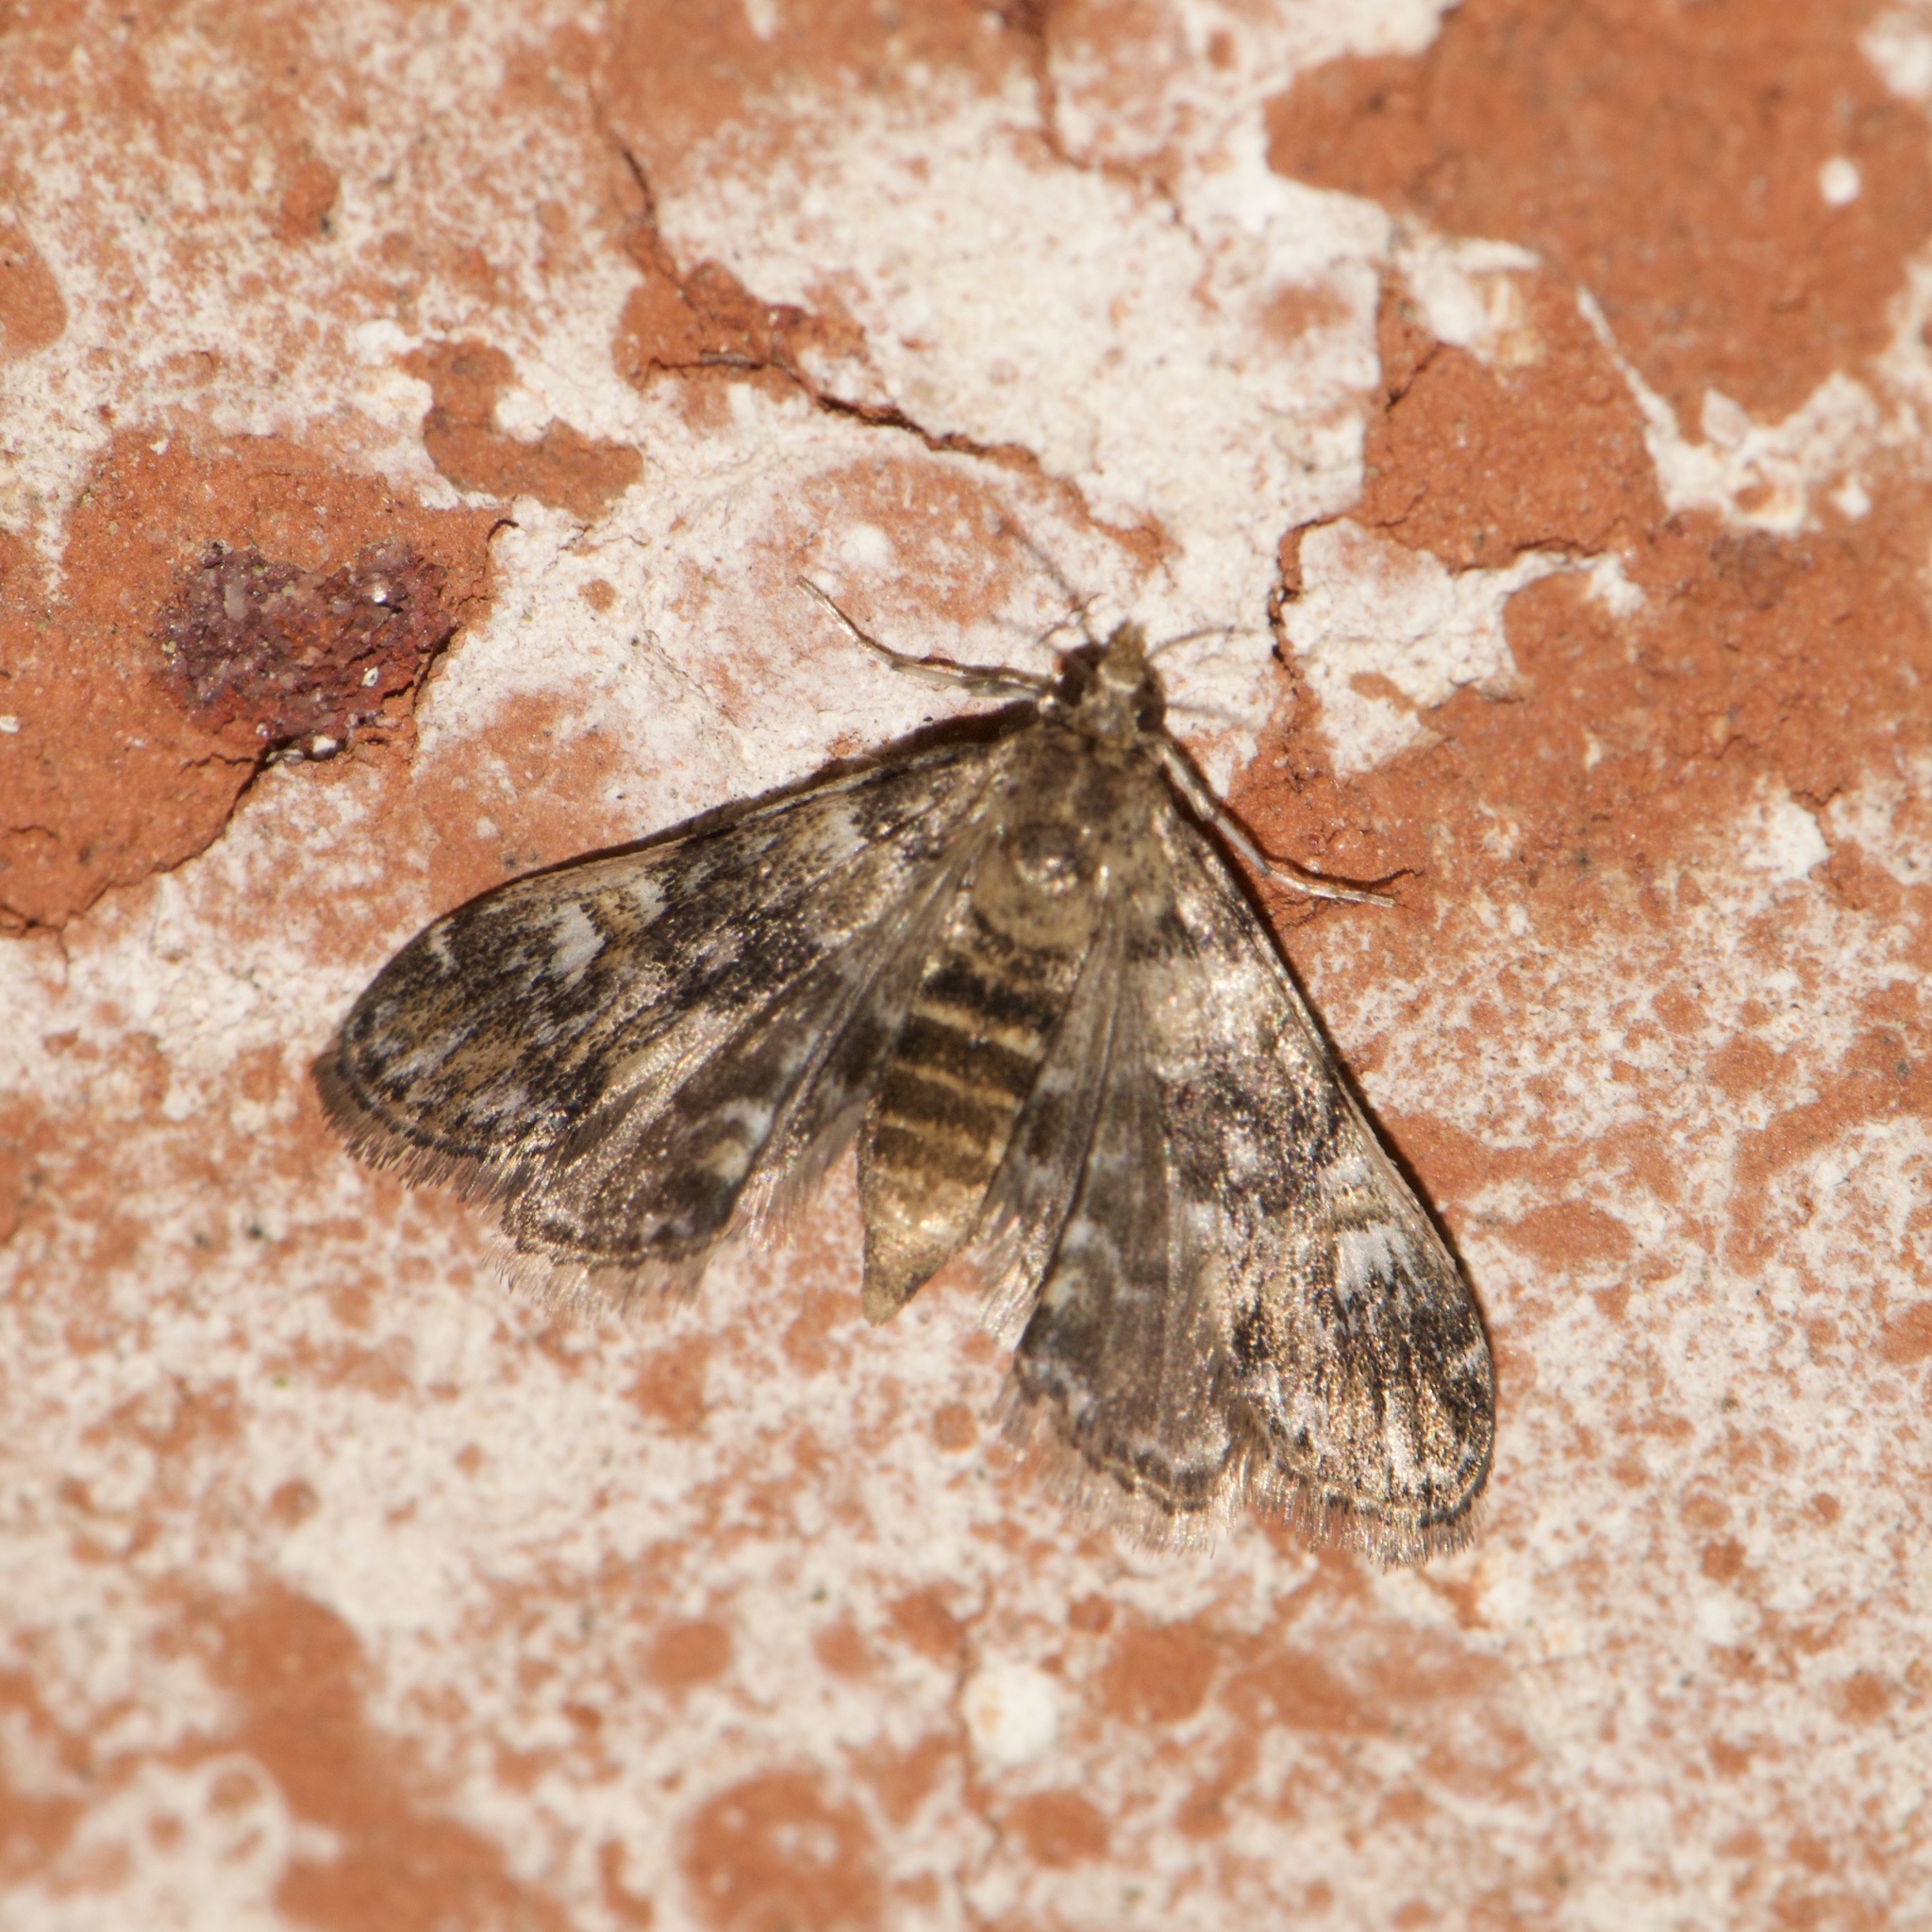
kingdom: Animalia
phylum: Arthropoda
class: Insecta
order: Lepidoptera
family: Crambidae
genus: Elophila
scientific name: Elophila obliteralis
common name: Waterlily leafcutter moth
